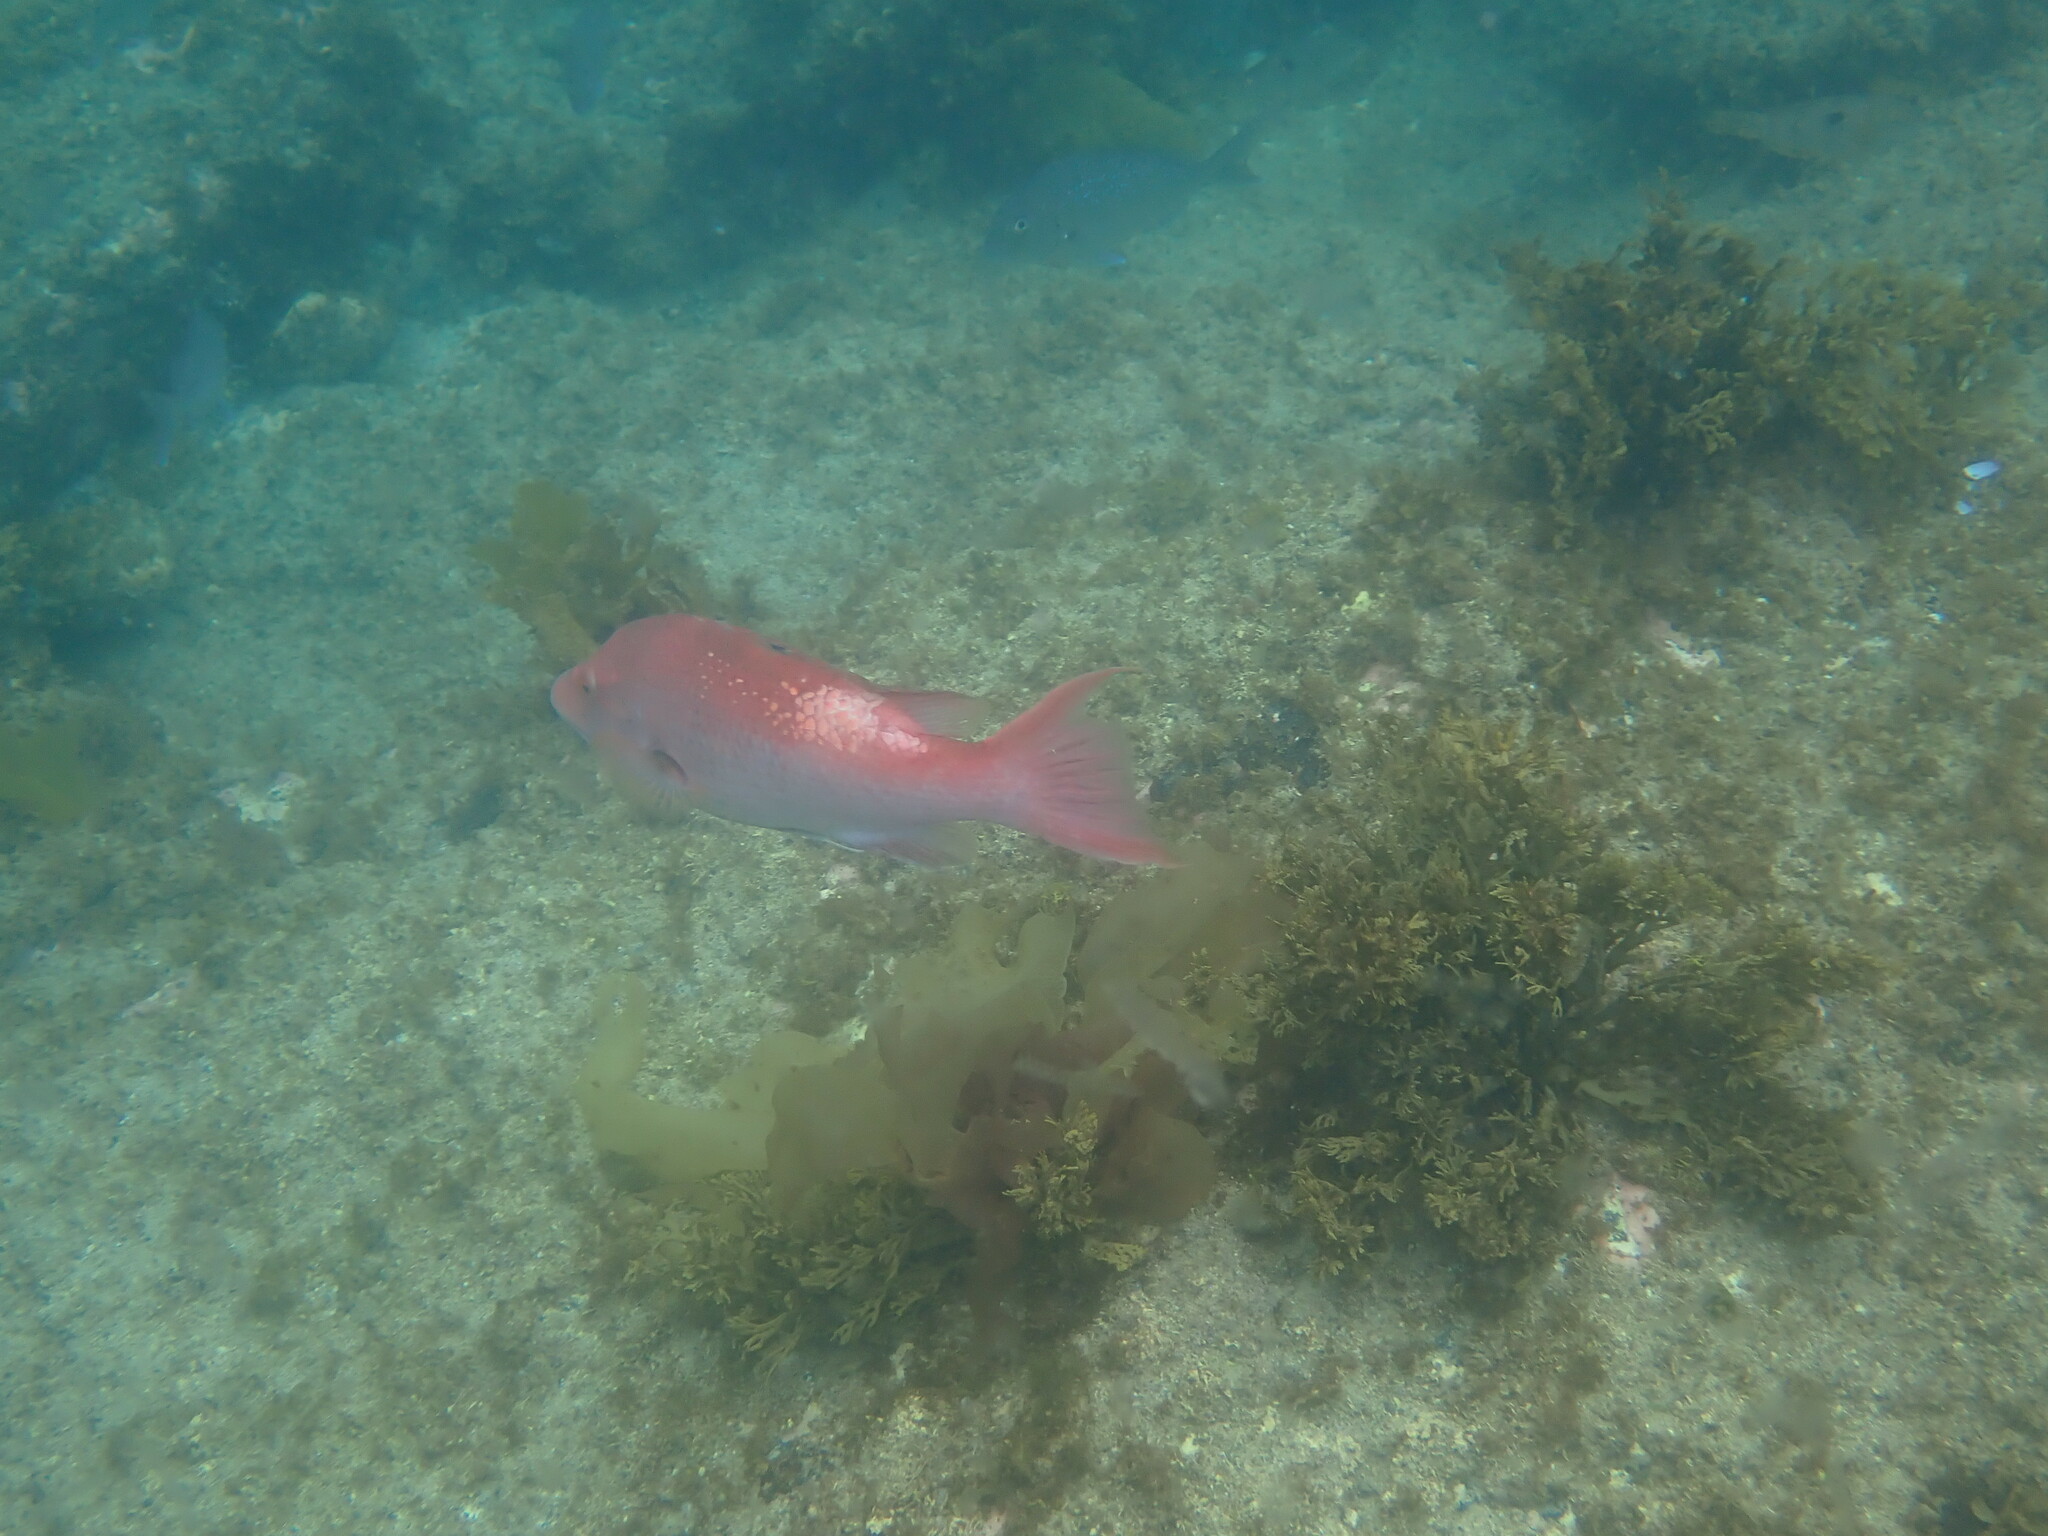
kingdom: Animalia
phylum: Chordata
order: Perciformes
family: Labridae
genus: Bodianus
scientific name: Bodianus unimaculatus
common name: Pigfish
